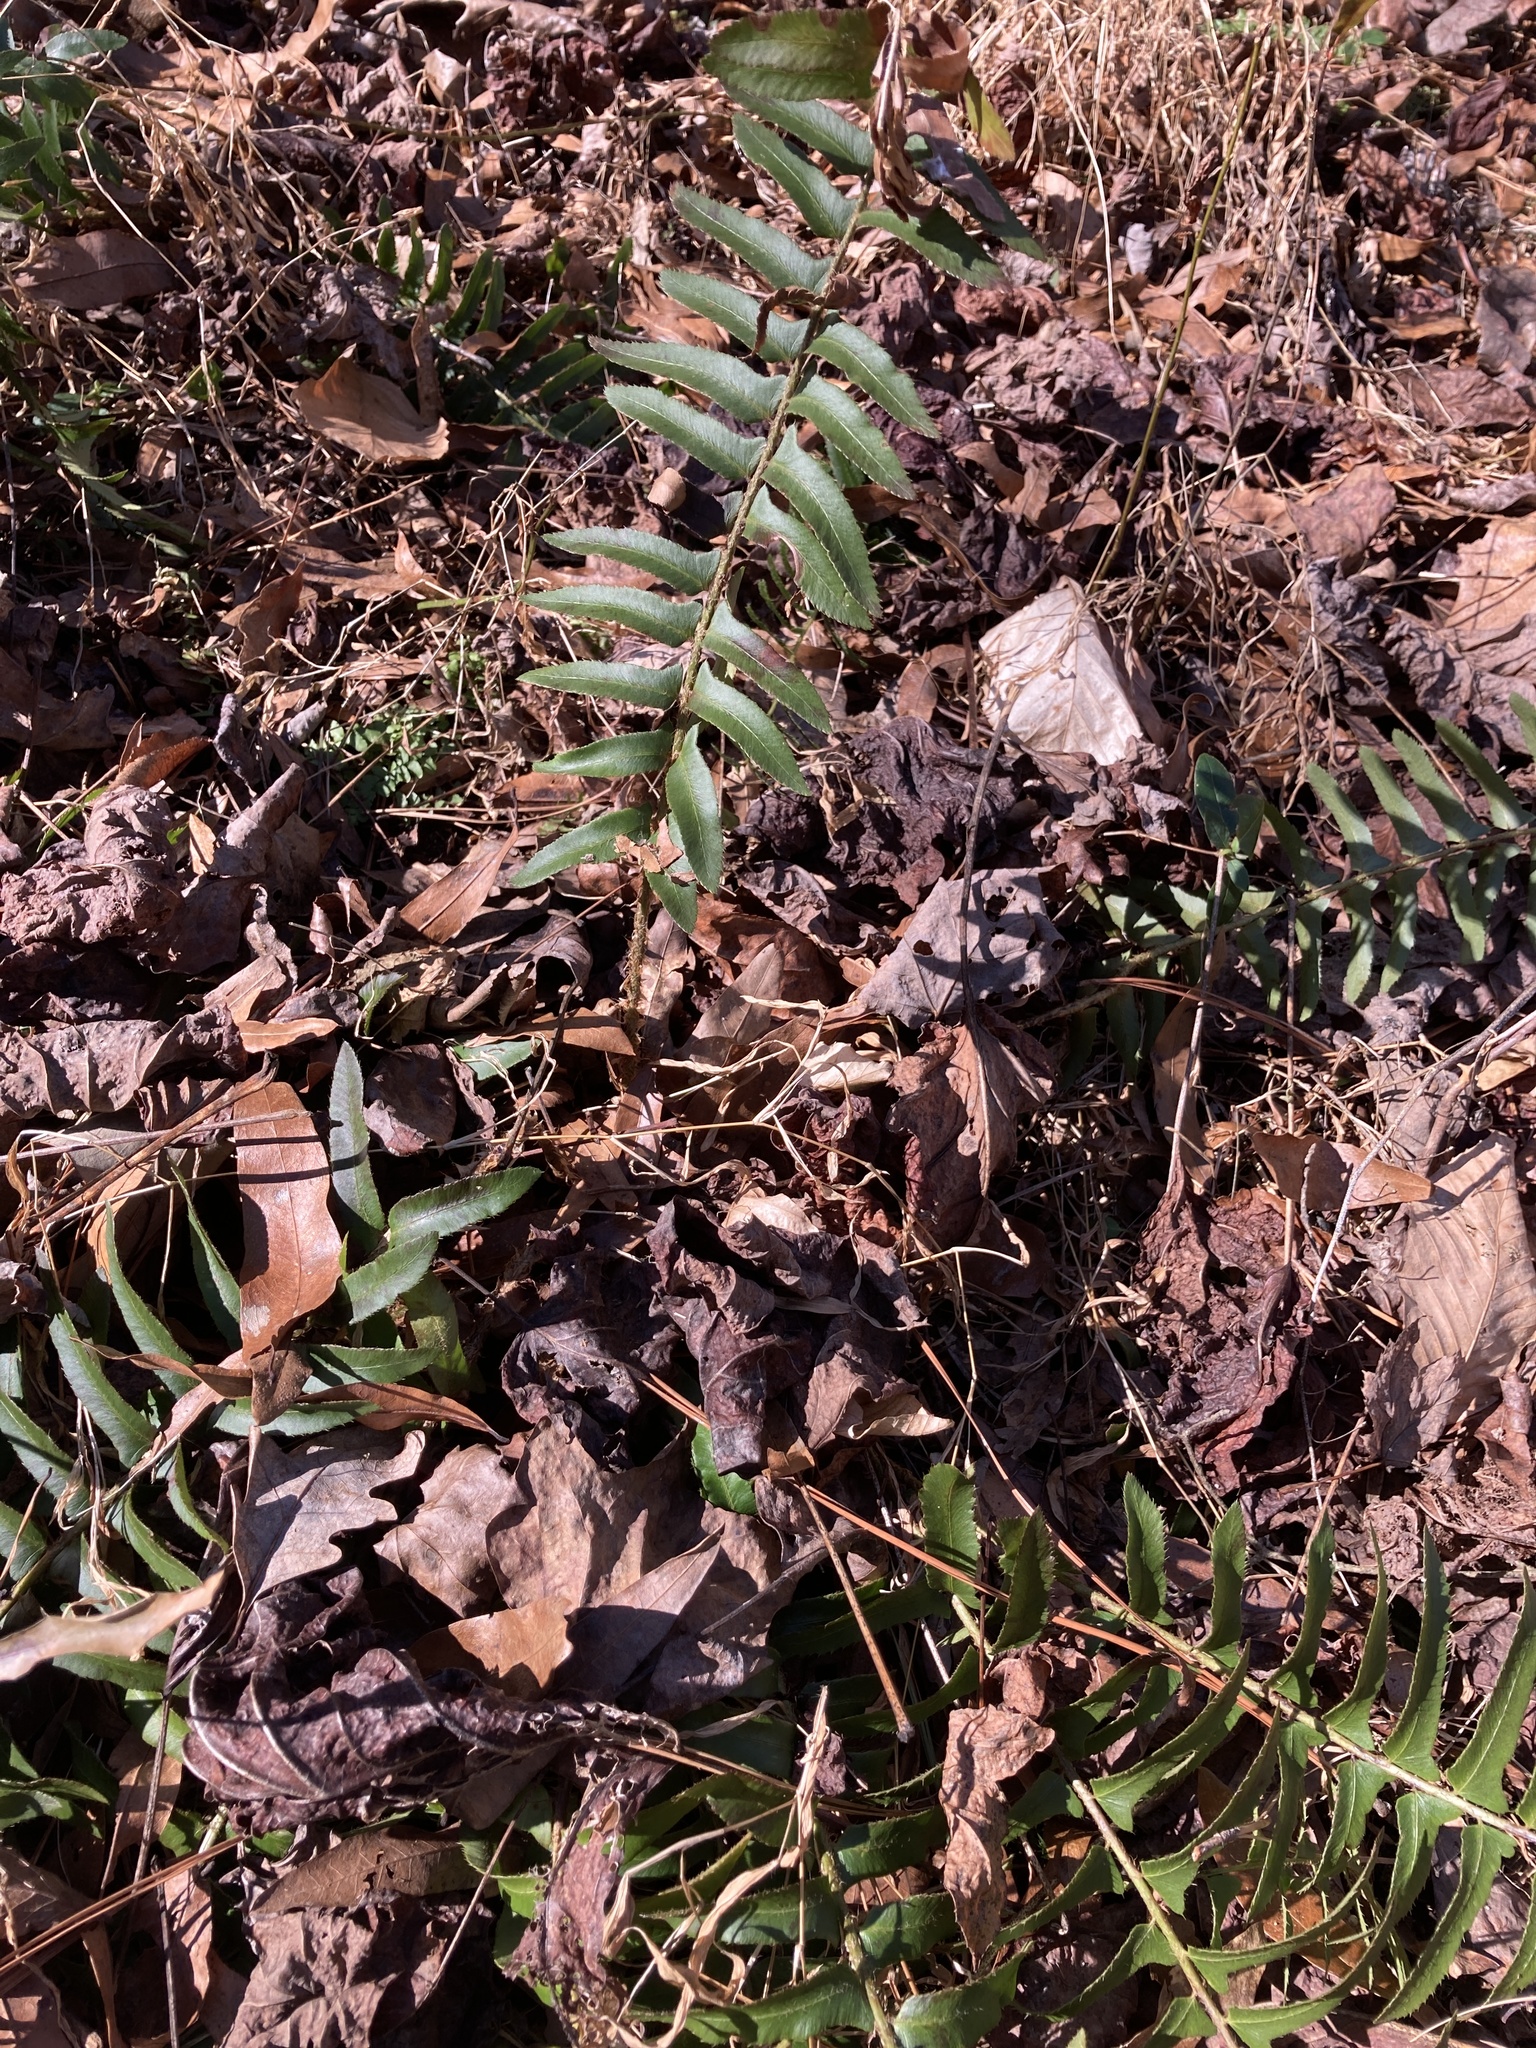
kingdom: Plantae
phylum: Tracheophyta
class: Polypodiopsida
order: Polypodiales
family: Dryopteridaceae
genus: Polystichum
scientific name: Polystichum acrostichoides
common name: Christmas fern
